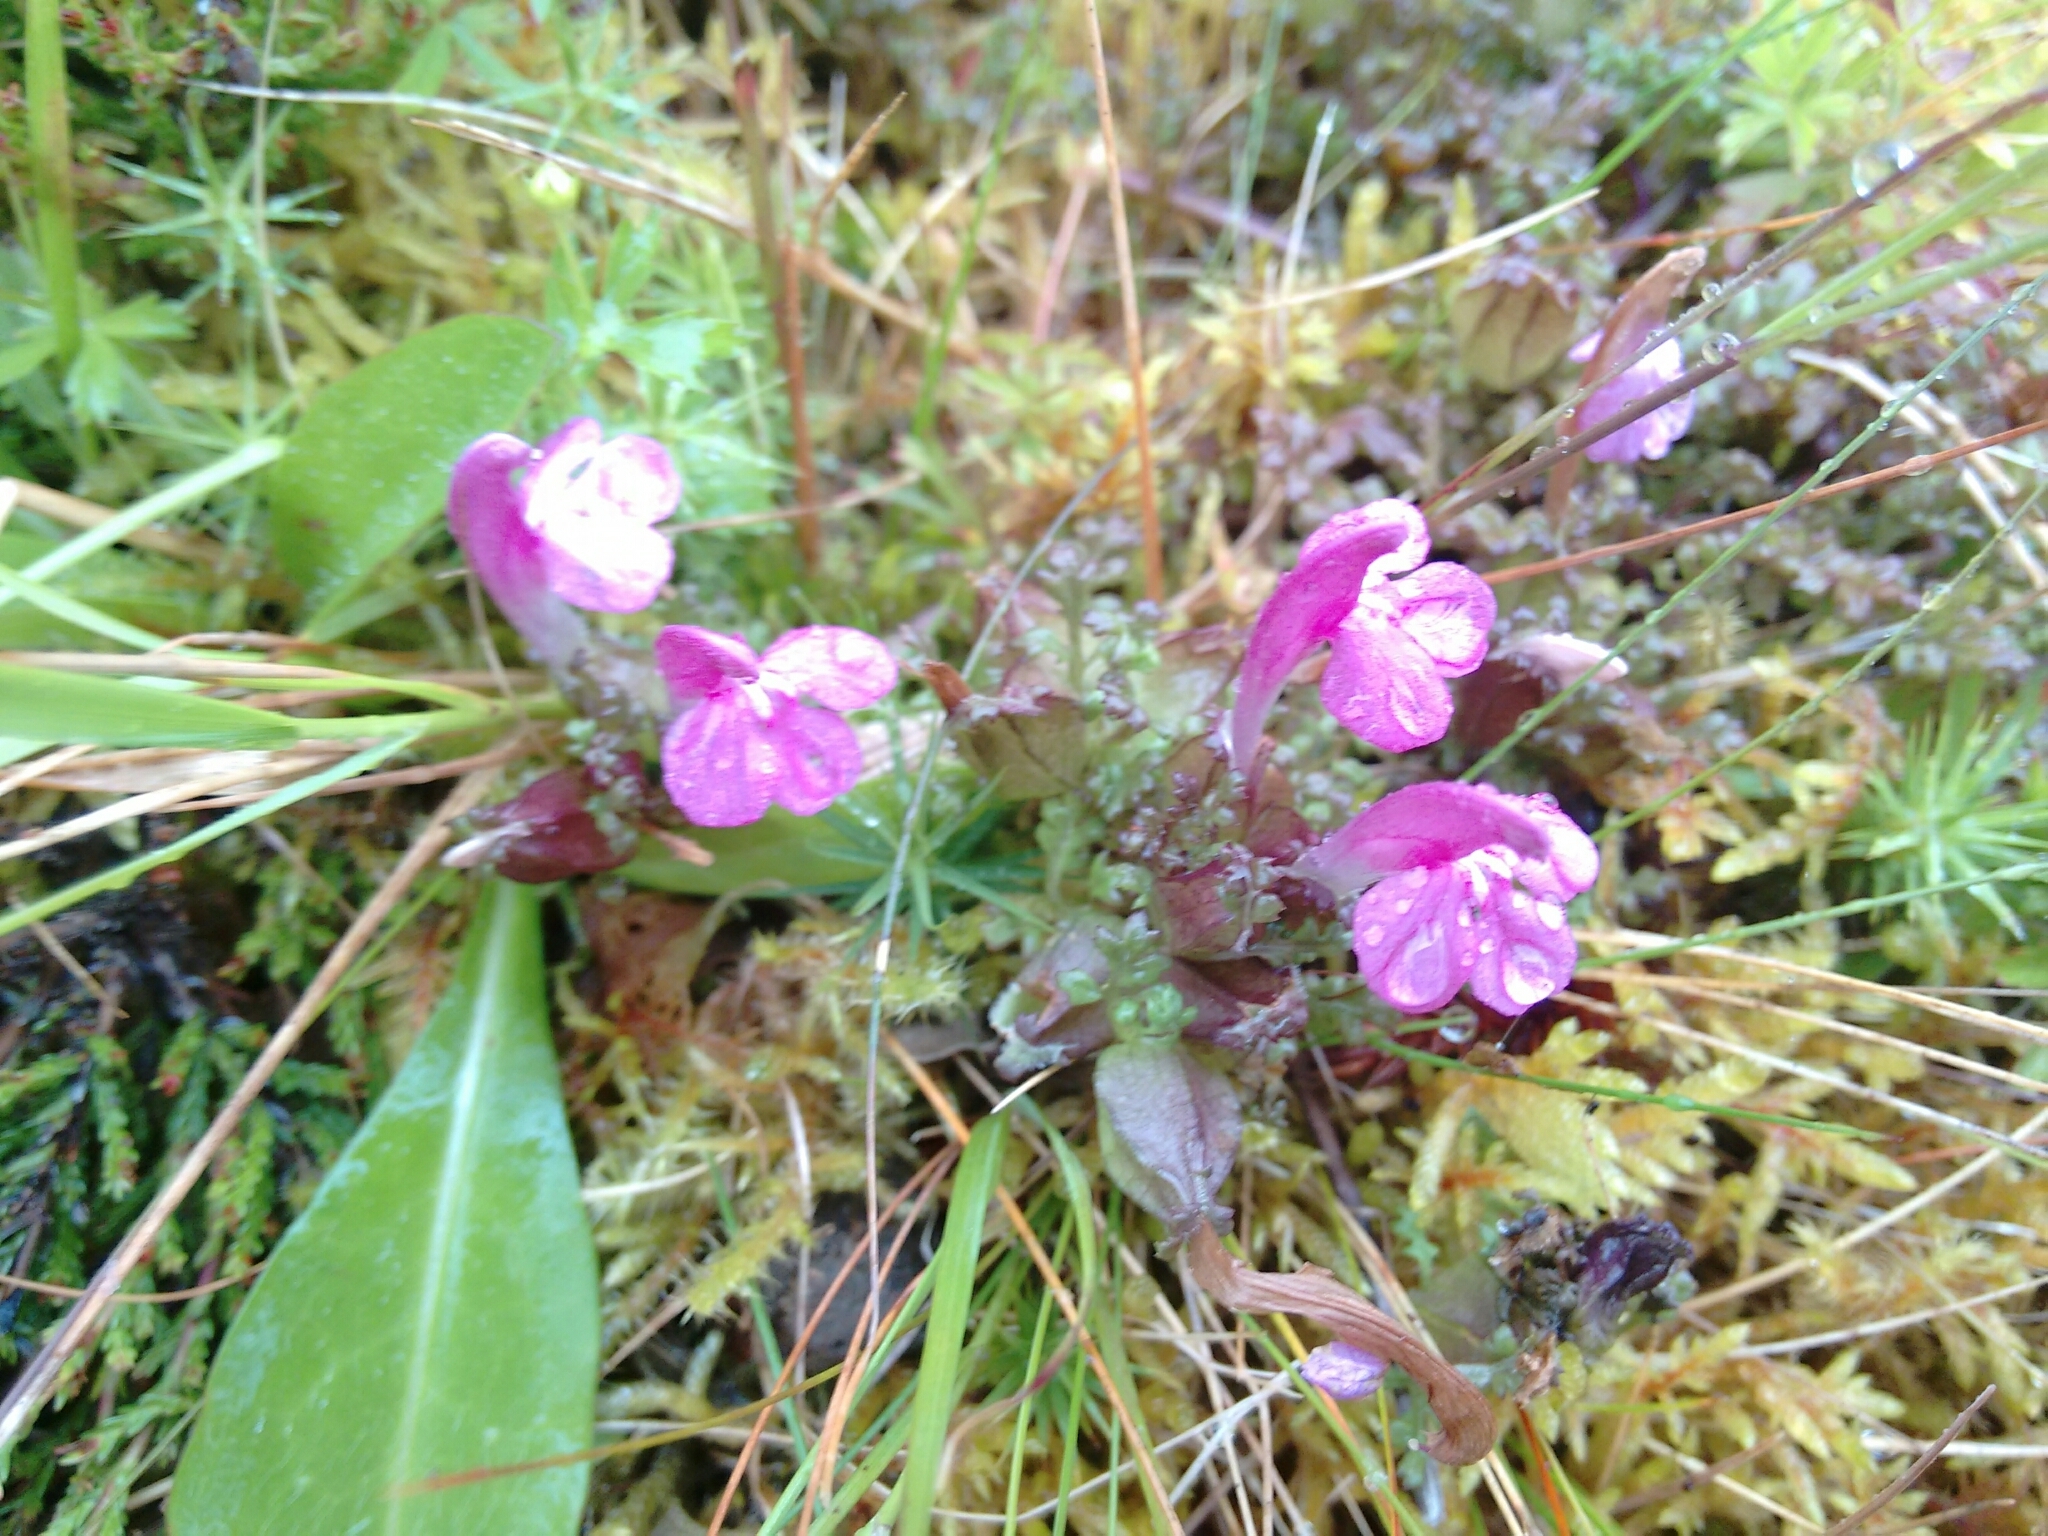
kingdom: Plantae
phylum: Tracheophyta
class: Magnoliopsida
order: Lamiales
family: Orobanchaceae
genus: Pedicularis
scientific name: Pedicularis sylvatica
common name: Lousewort
